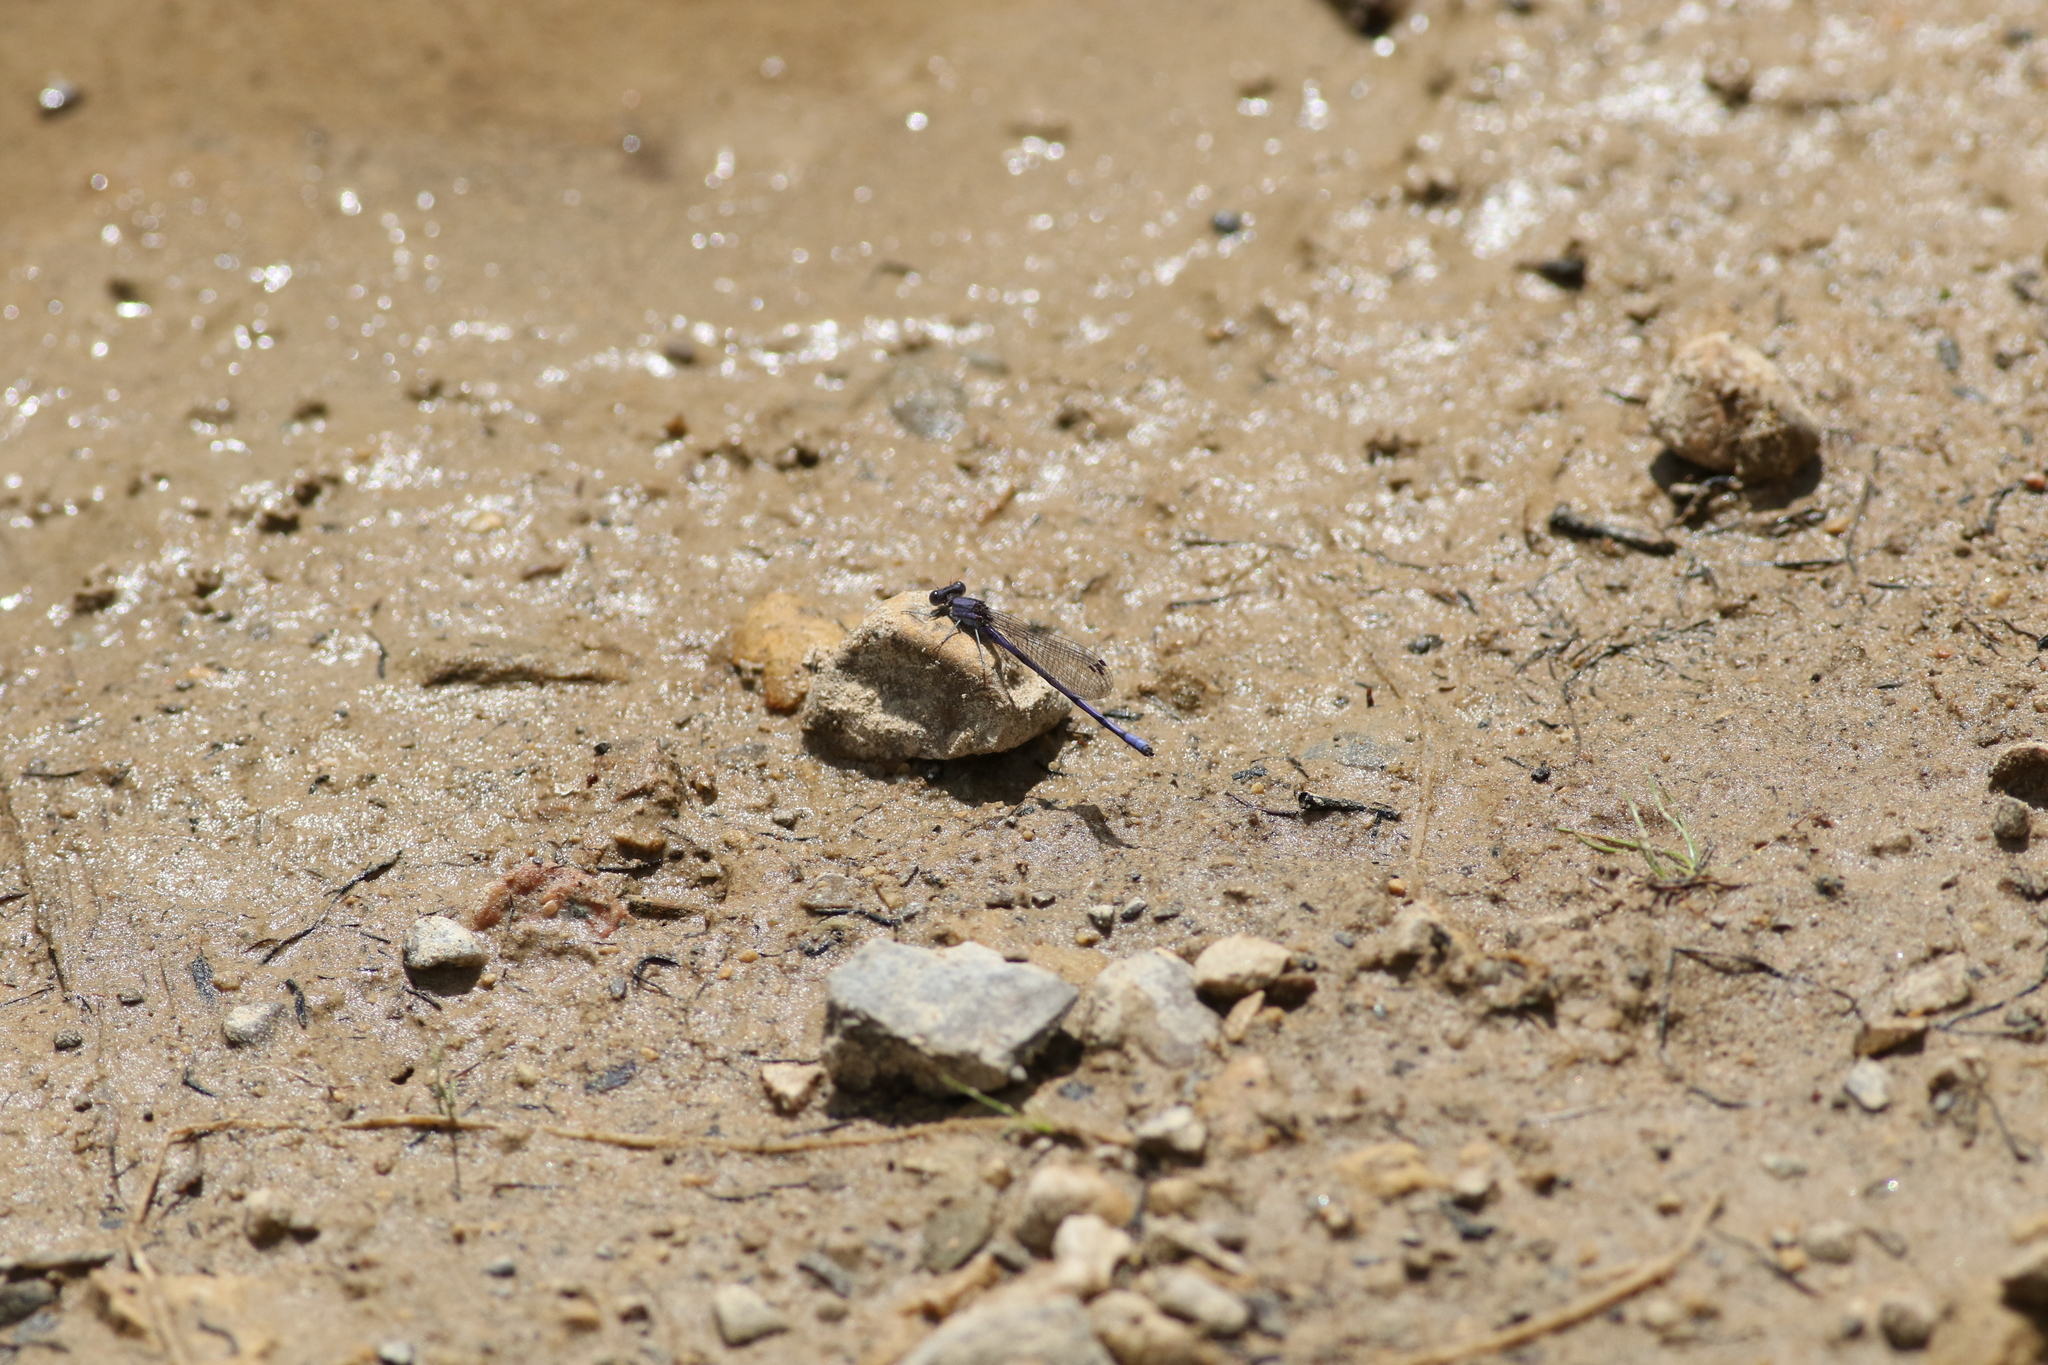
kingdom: Animalia
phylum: Arthropoda
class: Insecta
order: Odonata
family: Coenagrionidae
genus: Argia
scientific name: Argia fumipennis
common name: Variable dancer
